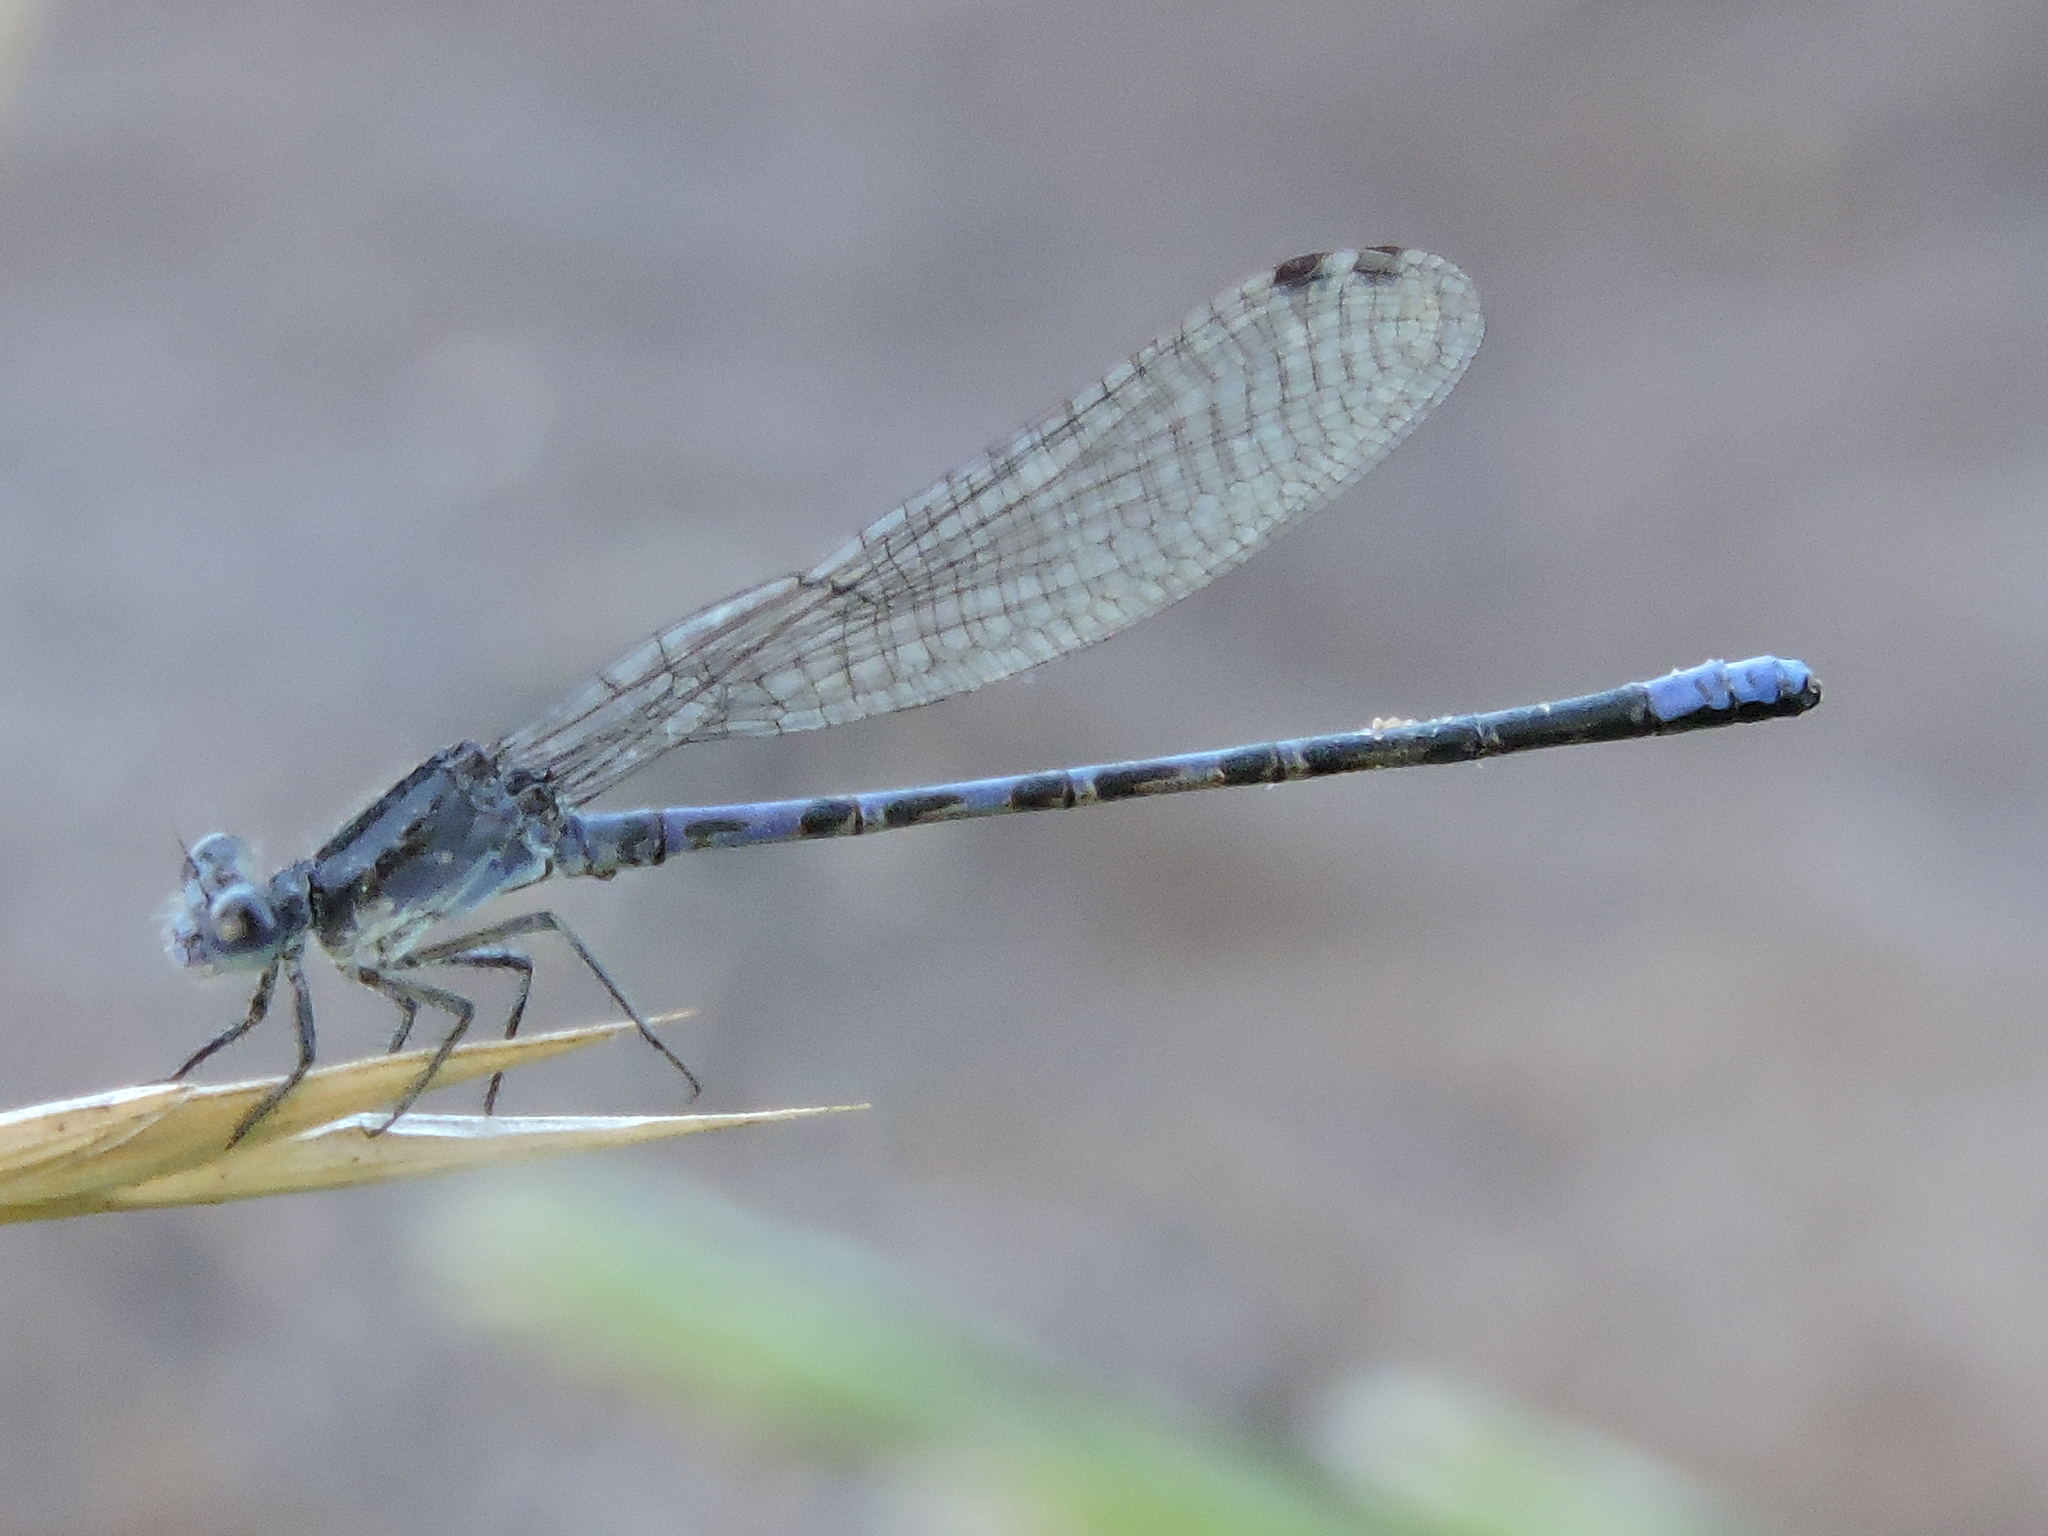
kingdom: Animalia
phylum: Arthropoda
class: Insecta
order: Odonata
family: Coenagrionidae
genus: Argia
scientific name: Argia immunda
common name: Kiowa dancer
